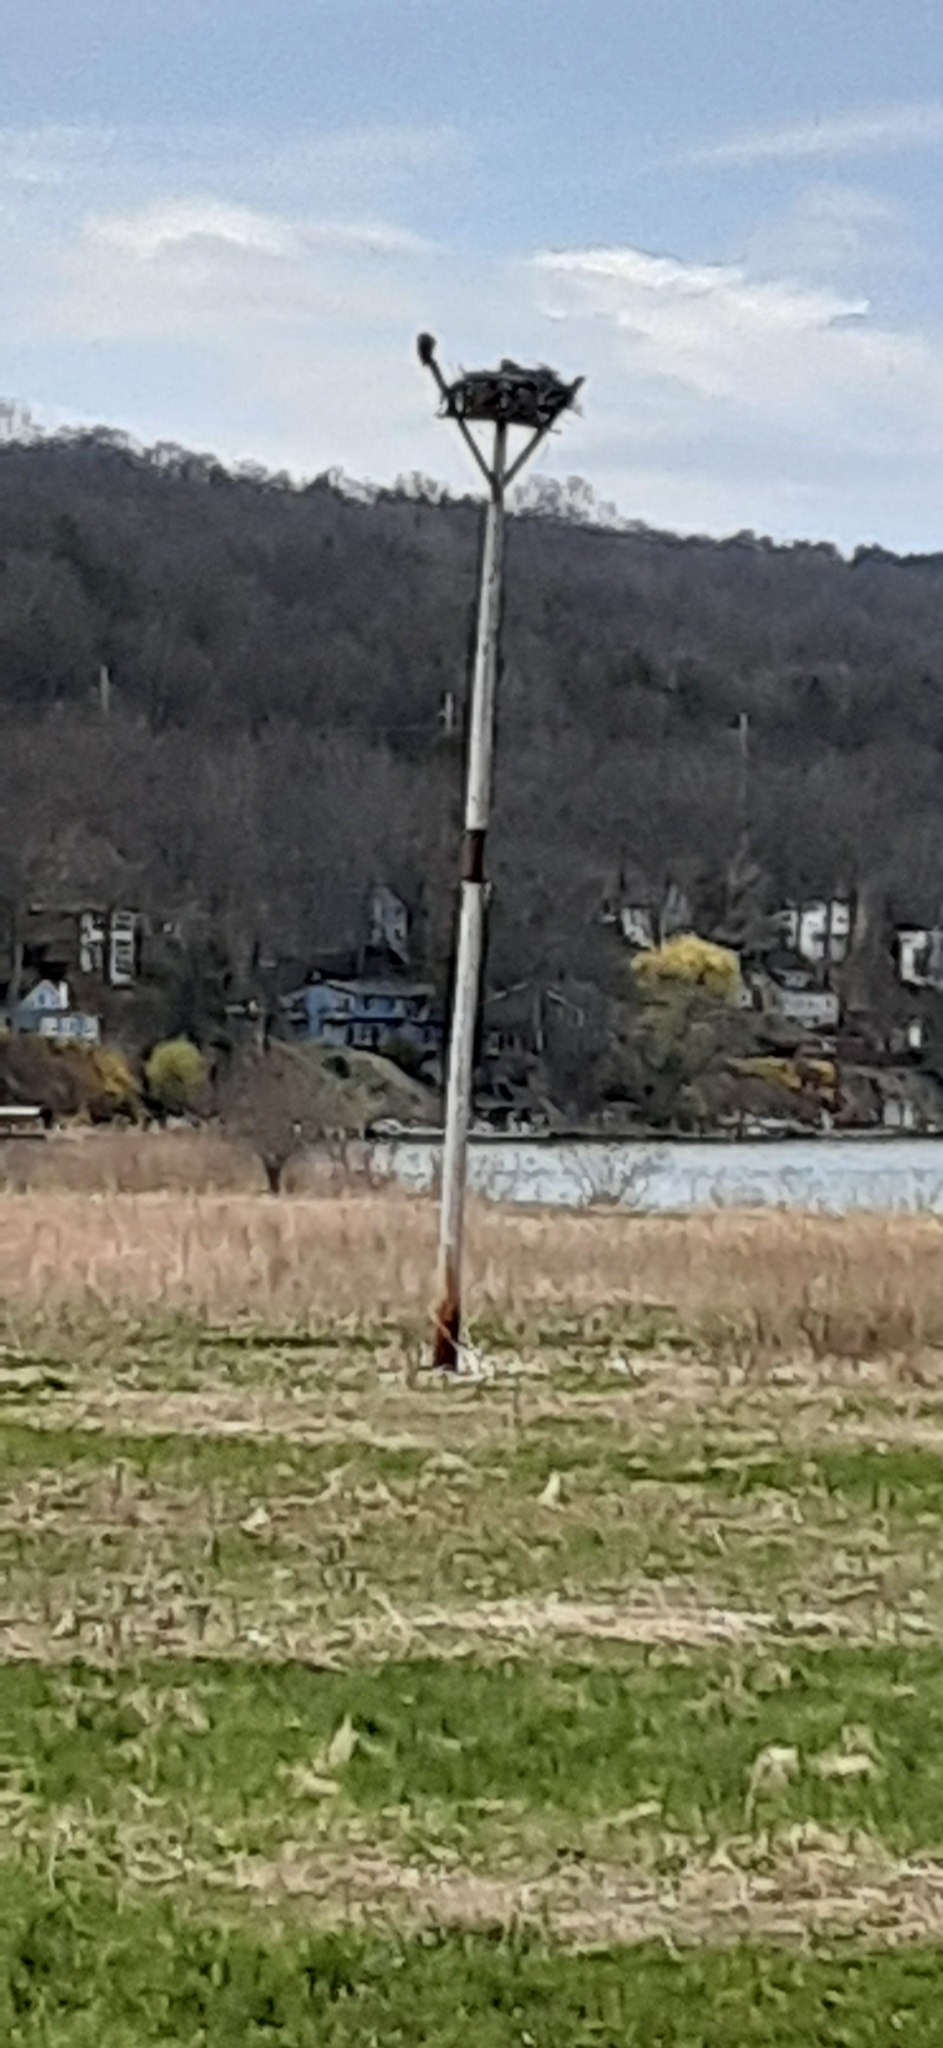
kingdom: Animalia
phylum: Chordata
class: Aves
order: Accipitriformes
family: Pandionidae
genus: Pandion
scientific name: Pandion haliaetus
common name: Osprey
